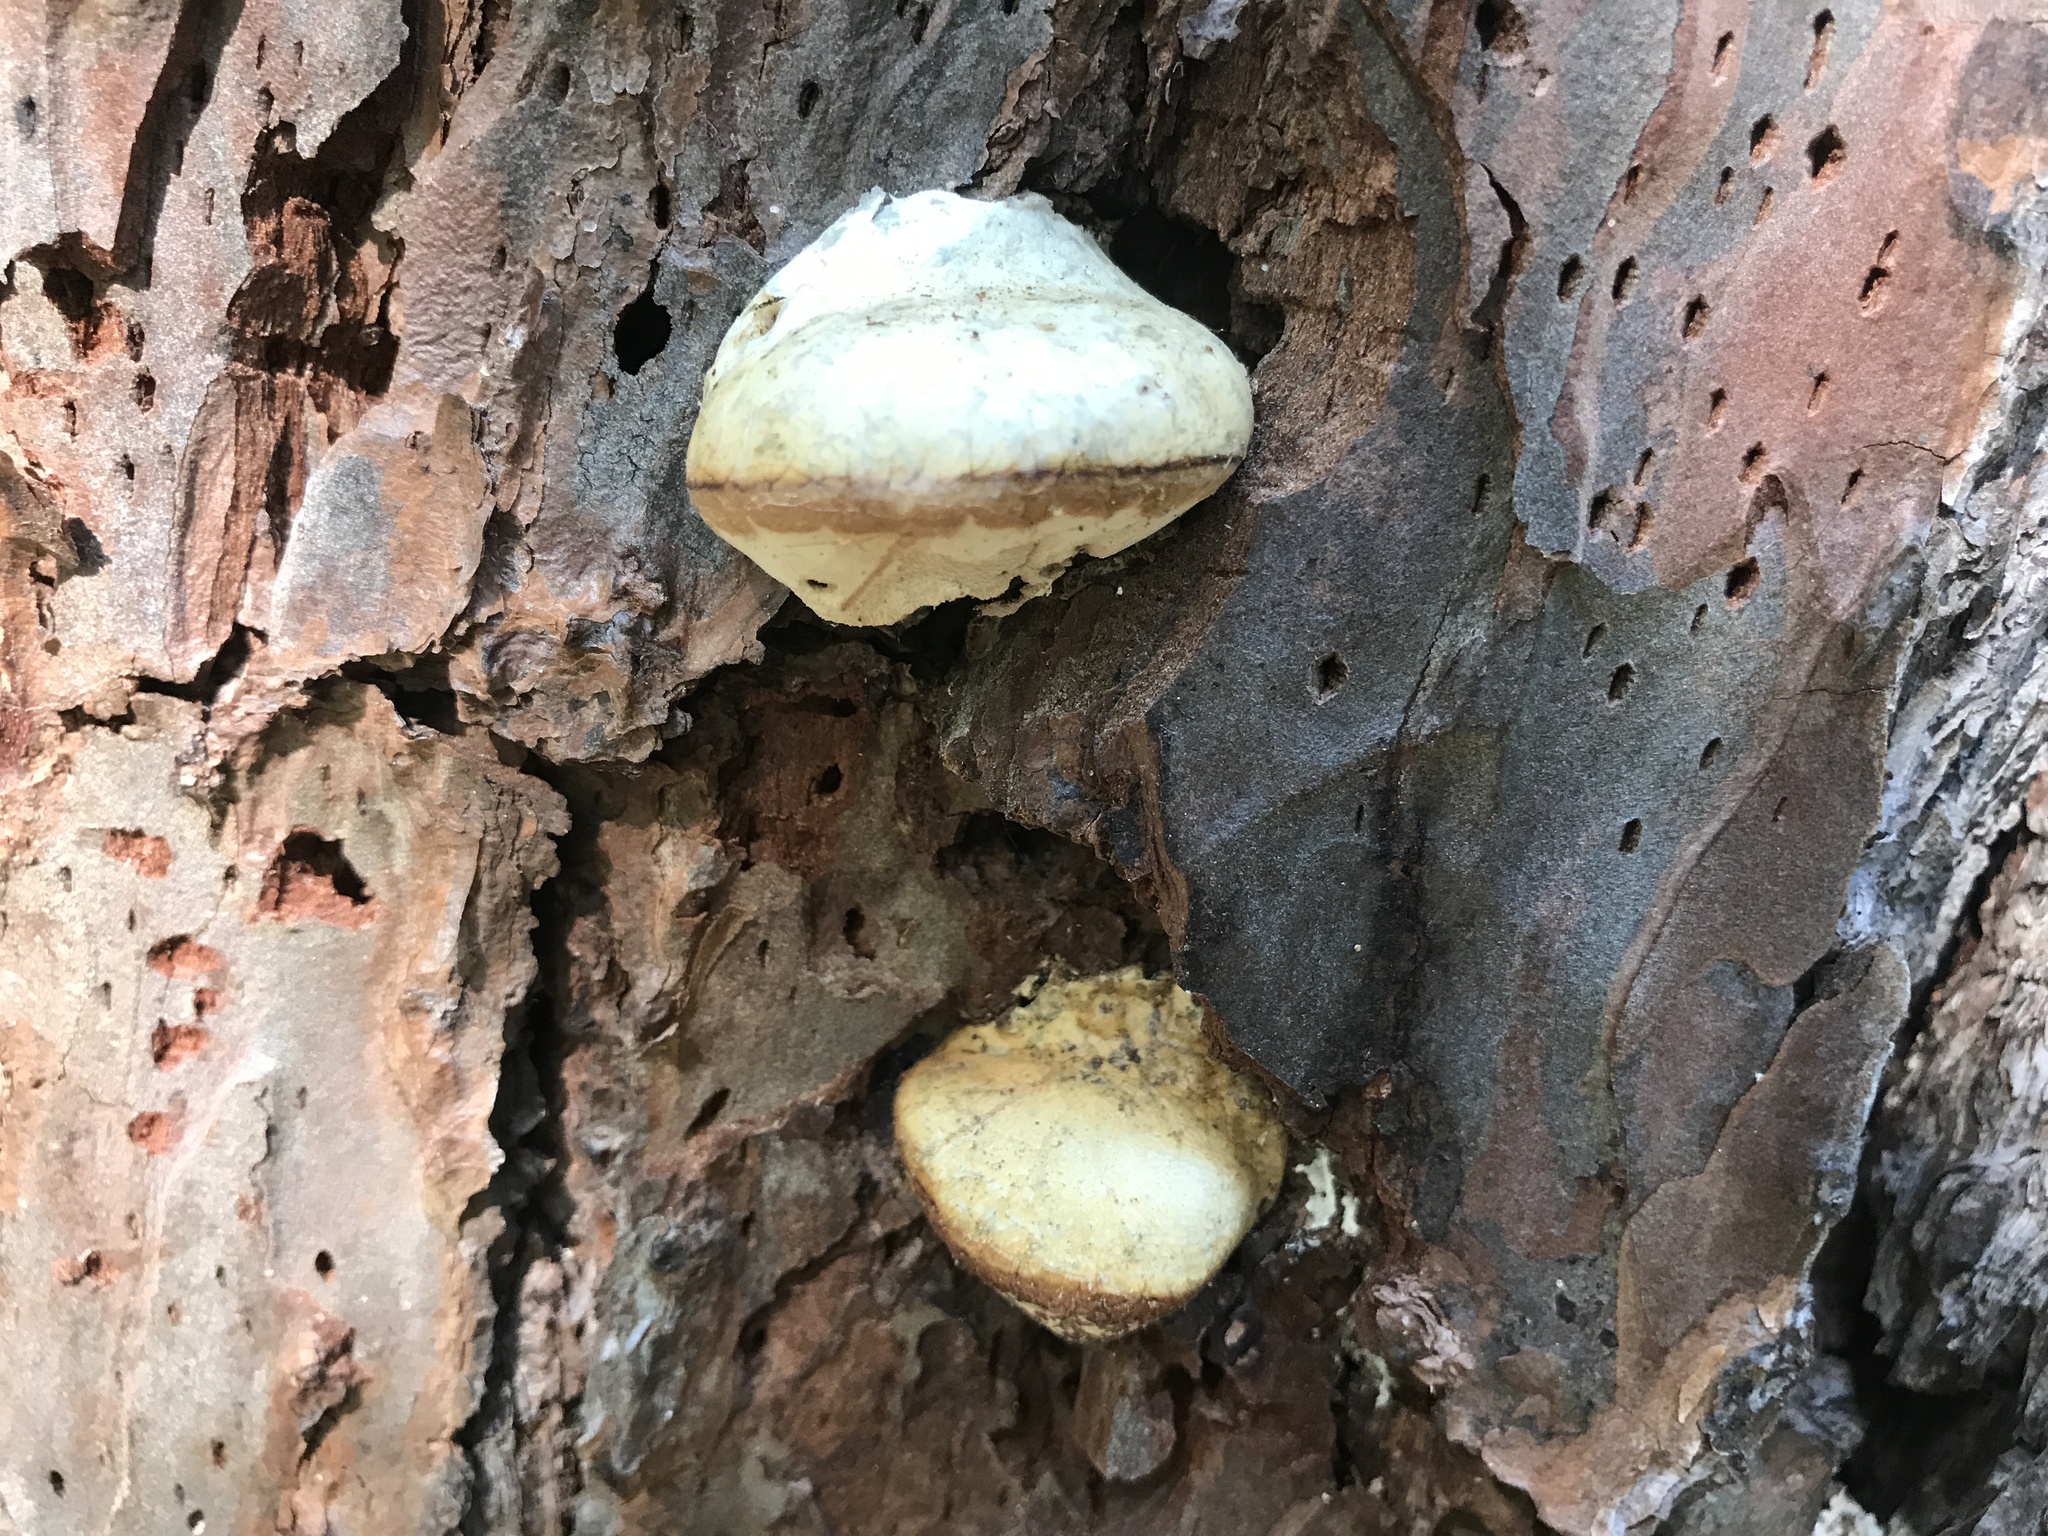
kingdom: Fungi
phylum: Basidiomycota
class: Agaricomycetes
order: Polyporales
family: Polyporaceae
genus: Cryptoporus
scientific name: Cryptoporus volvatus
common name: Veiled polypore
